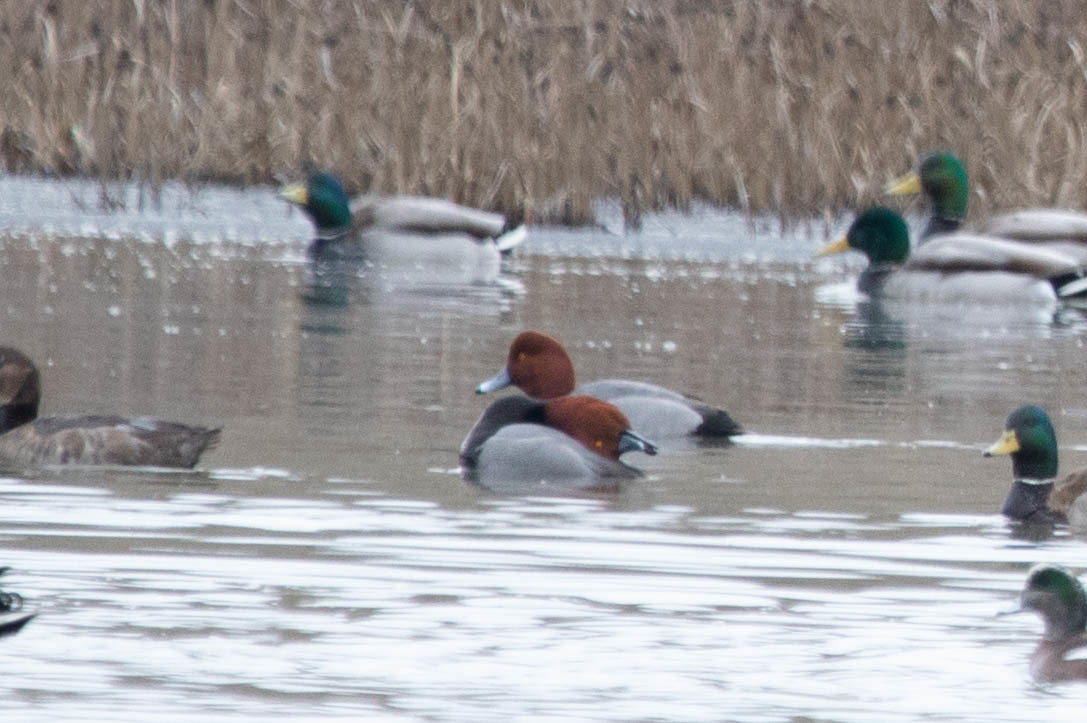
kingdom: Animalia
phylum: Chordata
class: Aves
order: Anseriformes
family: Anatidae
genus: Aythya
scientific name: Aythya americana
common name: Redhead
